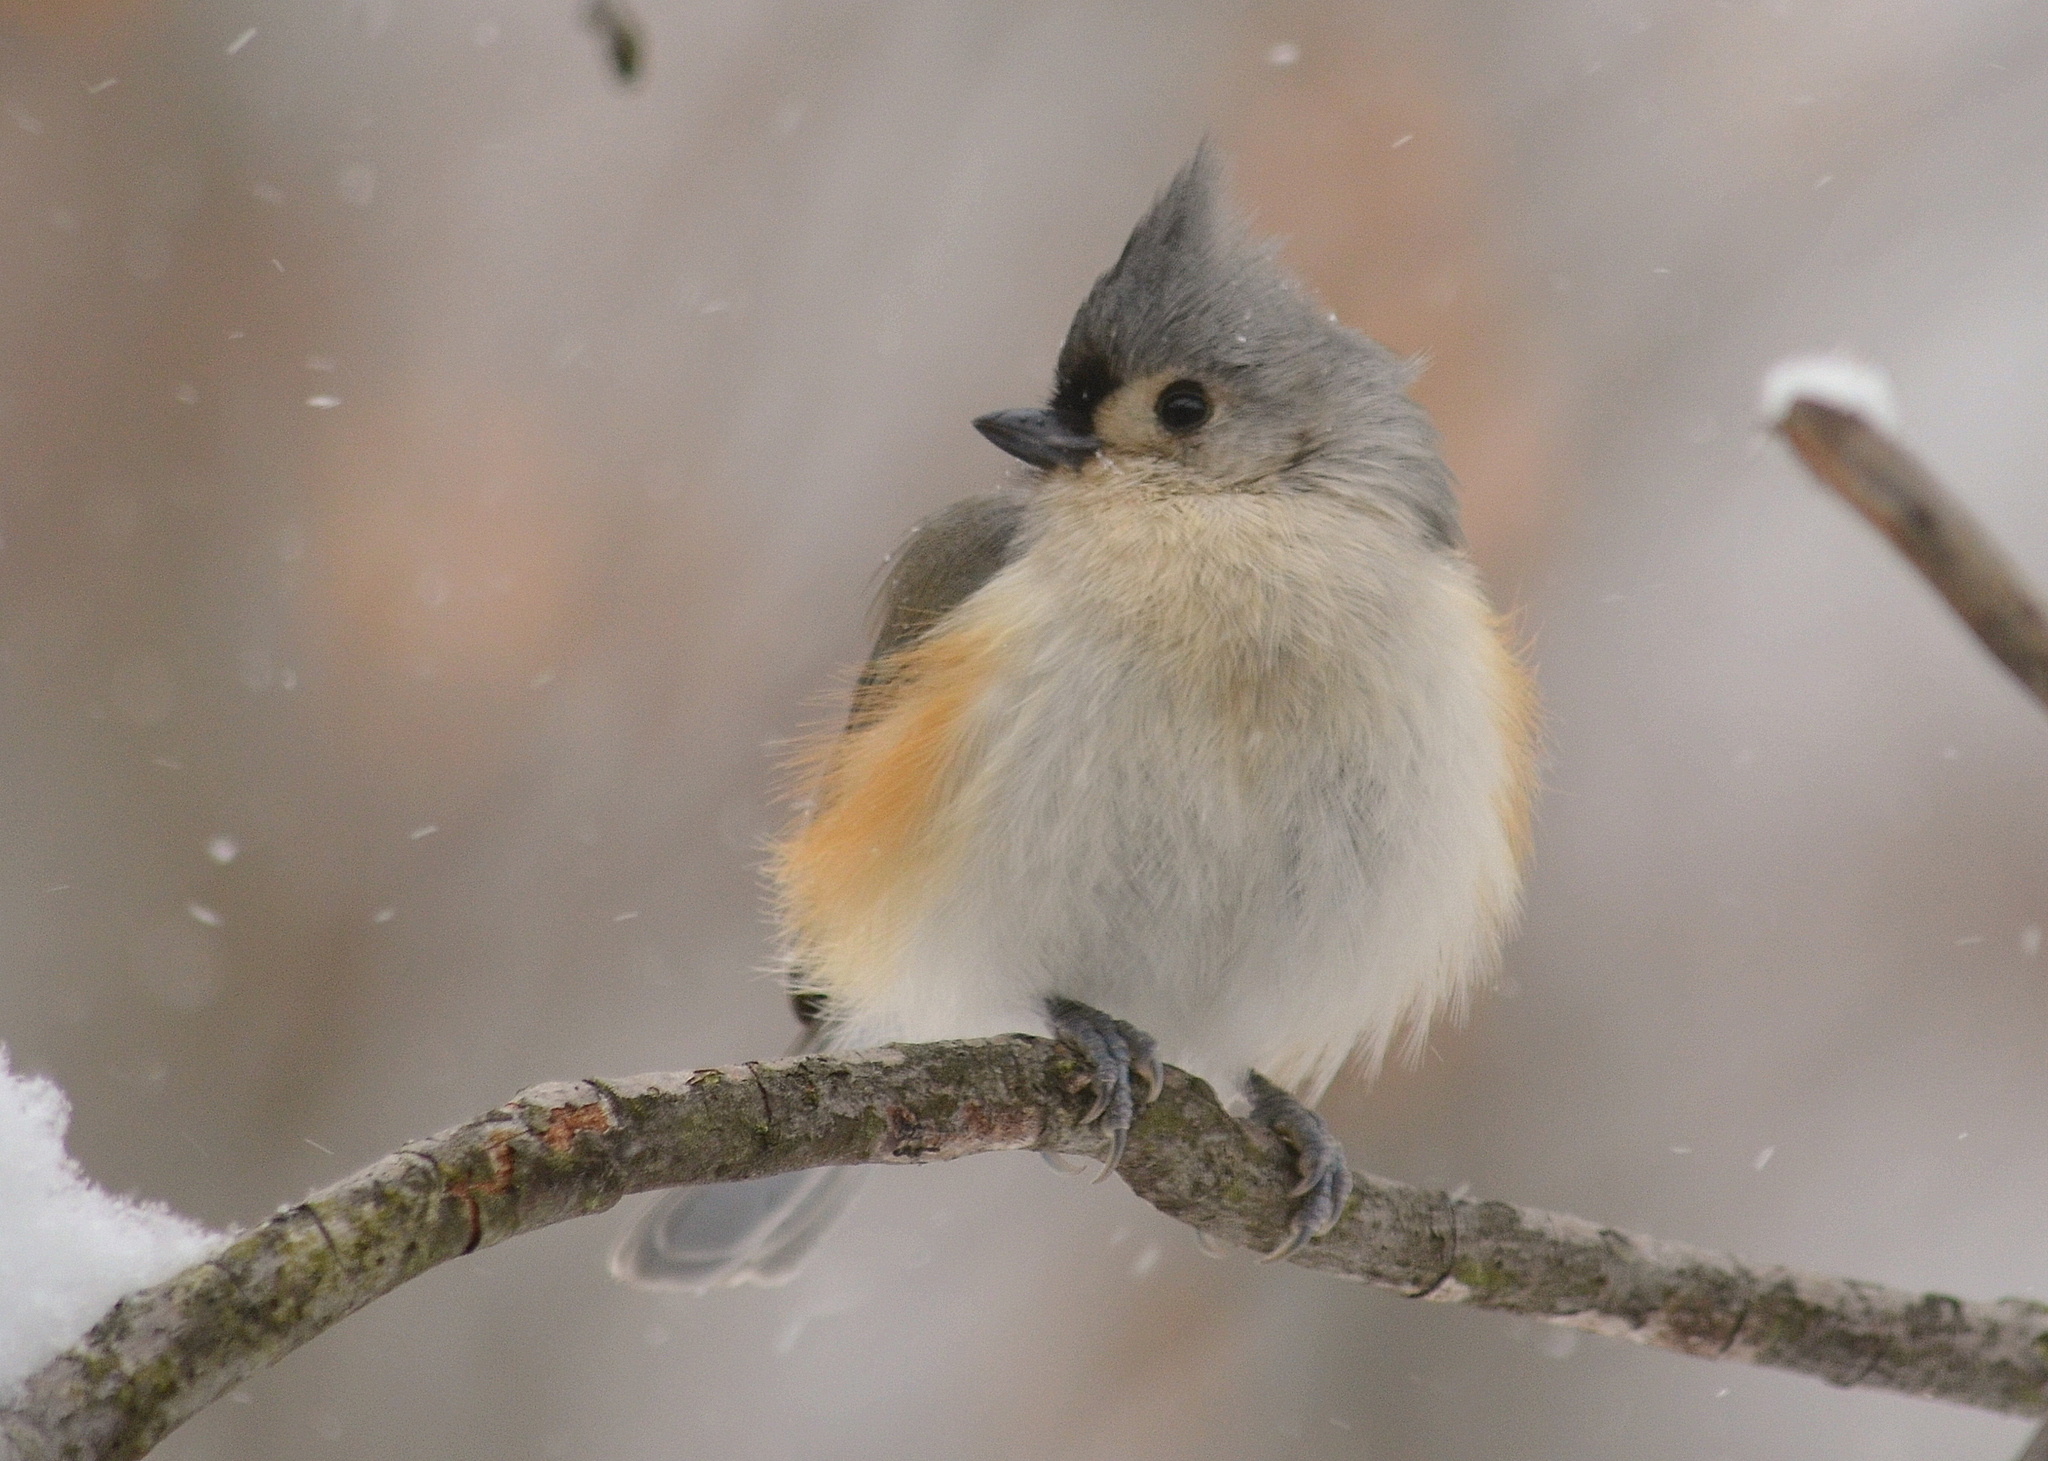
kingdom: Animalia
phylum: Chordata
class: Aves
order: Passeriformes
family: Paridae
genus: Baeolophus
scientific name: Baeolophus bicolor
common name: Tufted titmouse
